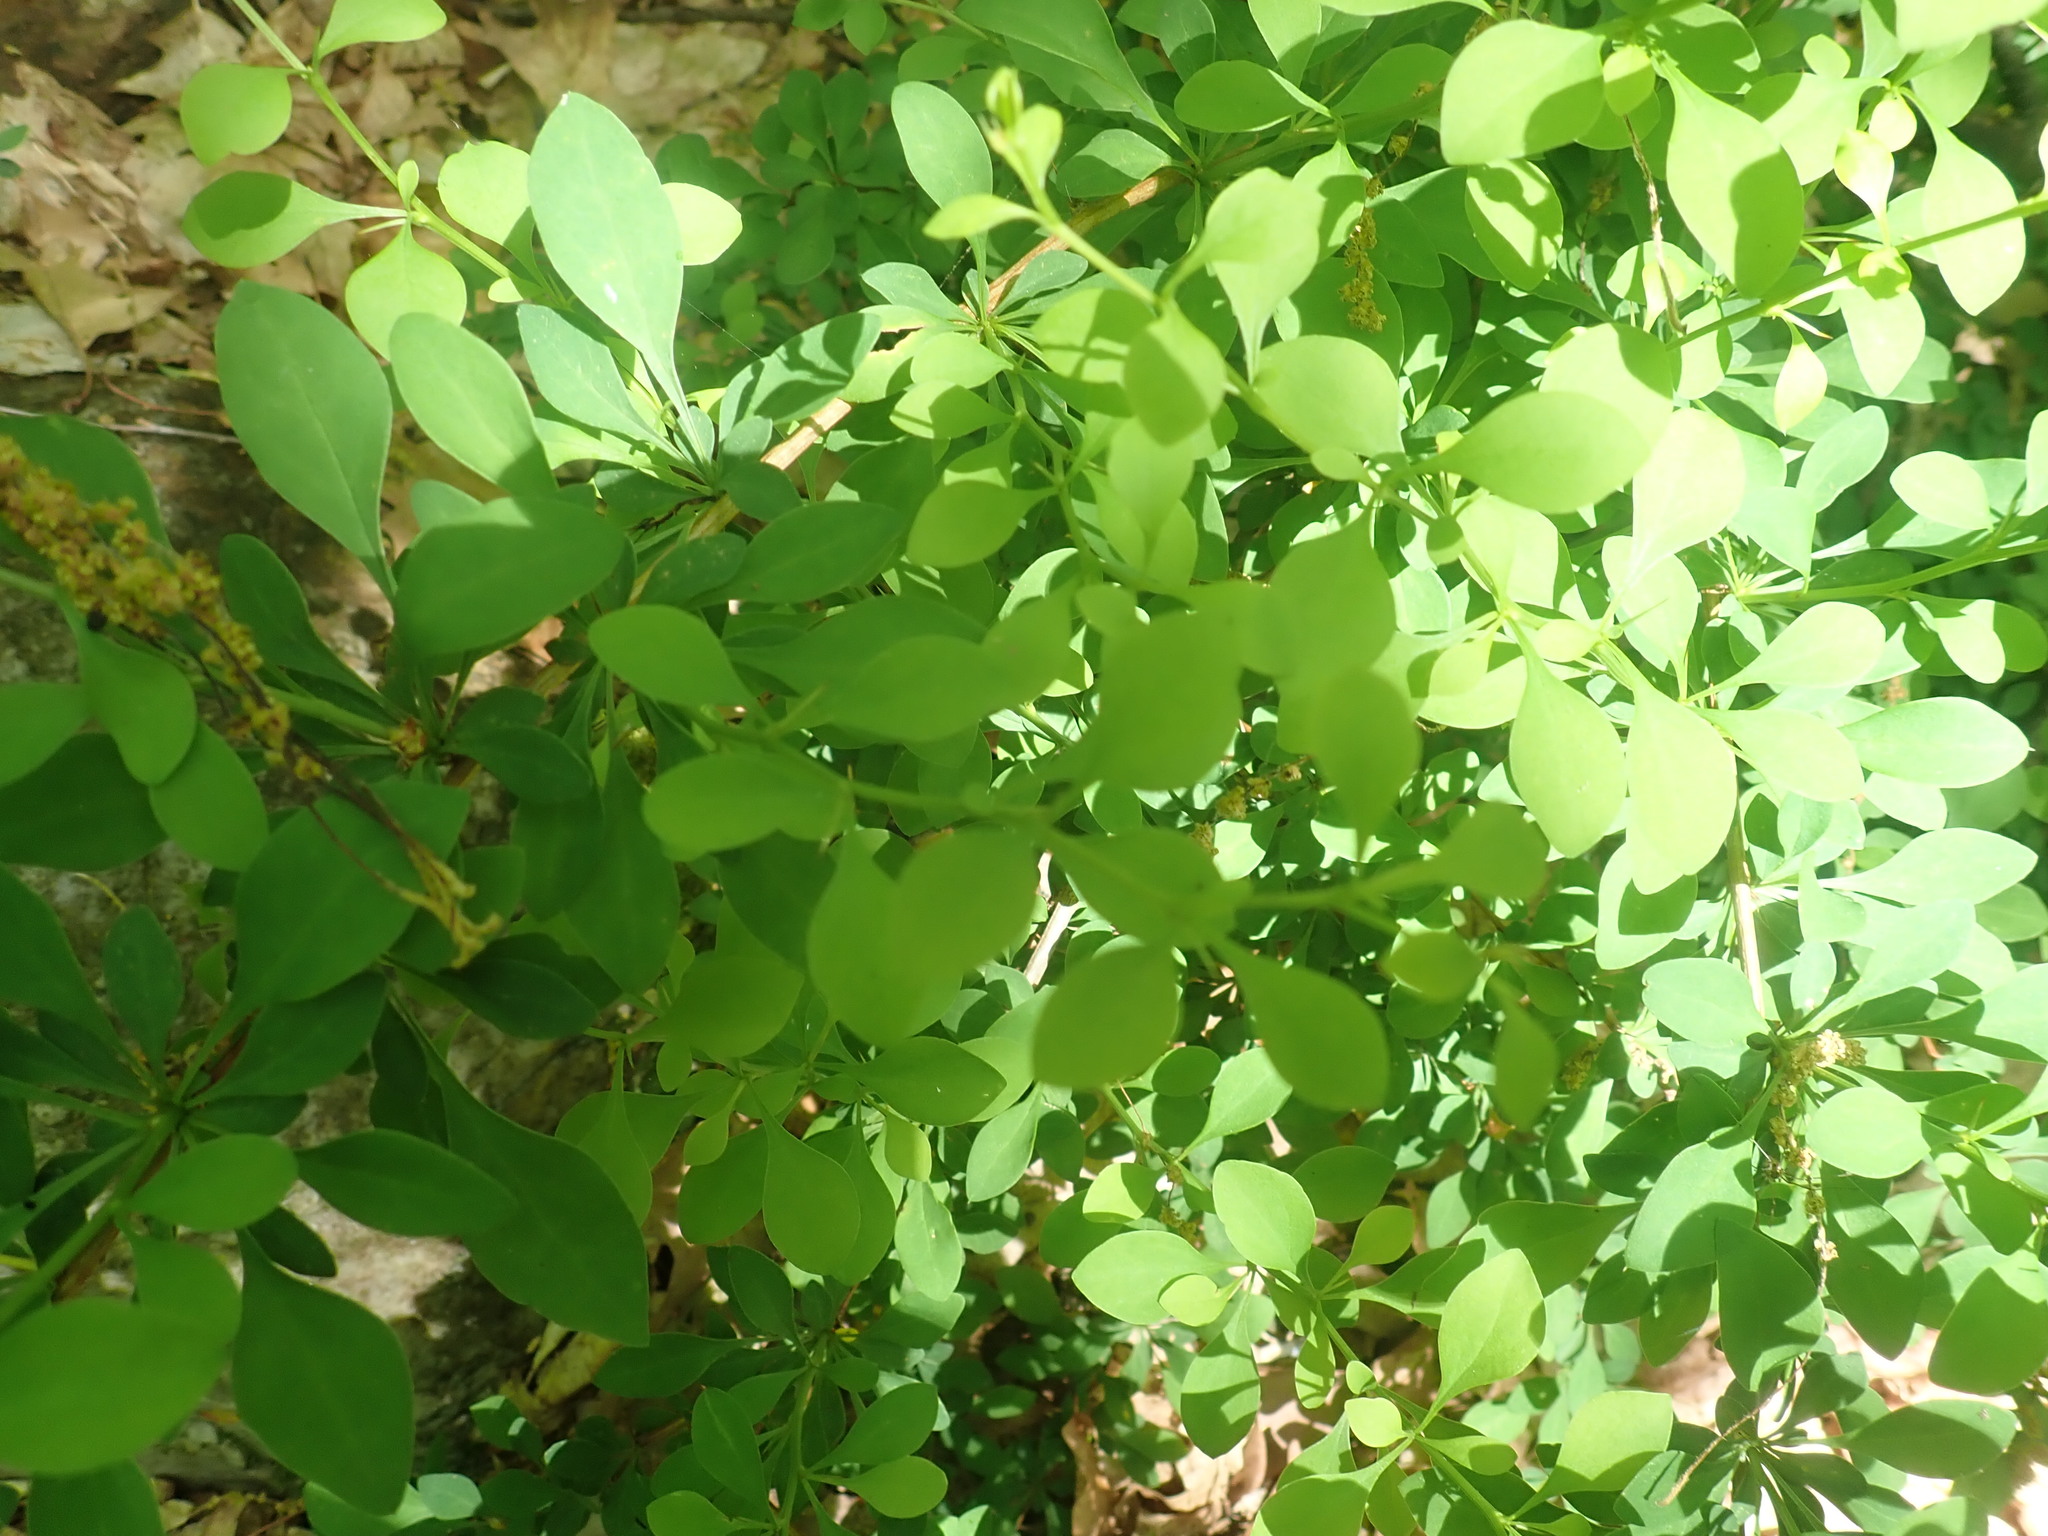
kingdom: Plantae
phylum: Tracheophyta
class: Magnoliopsida
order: Ranunculales
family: Berberidaceae
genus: Berberis
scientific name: Berberis thunbergii
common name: Japanese barberry
